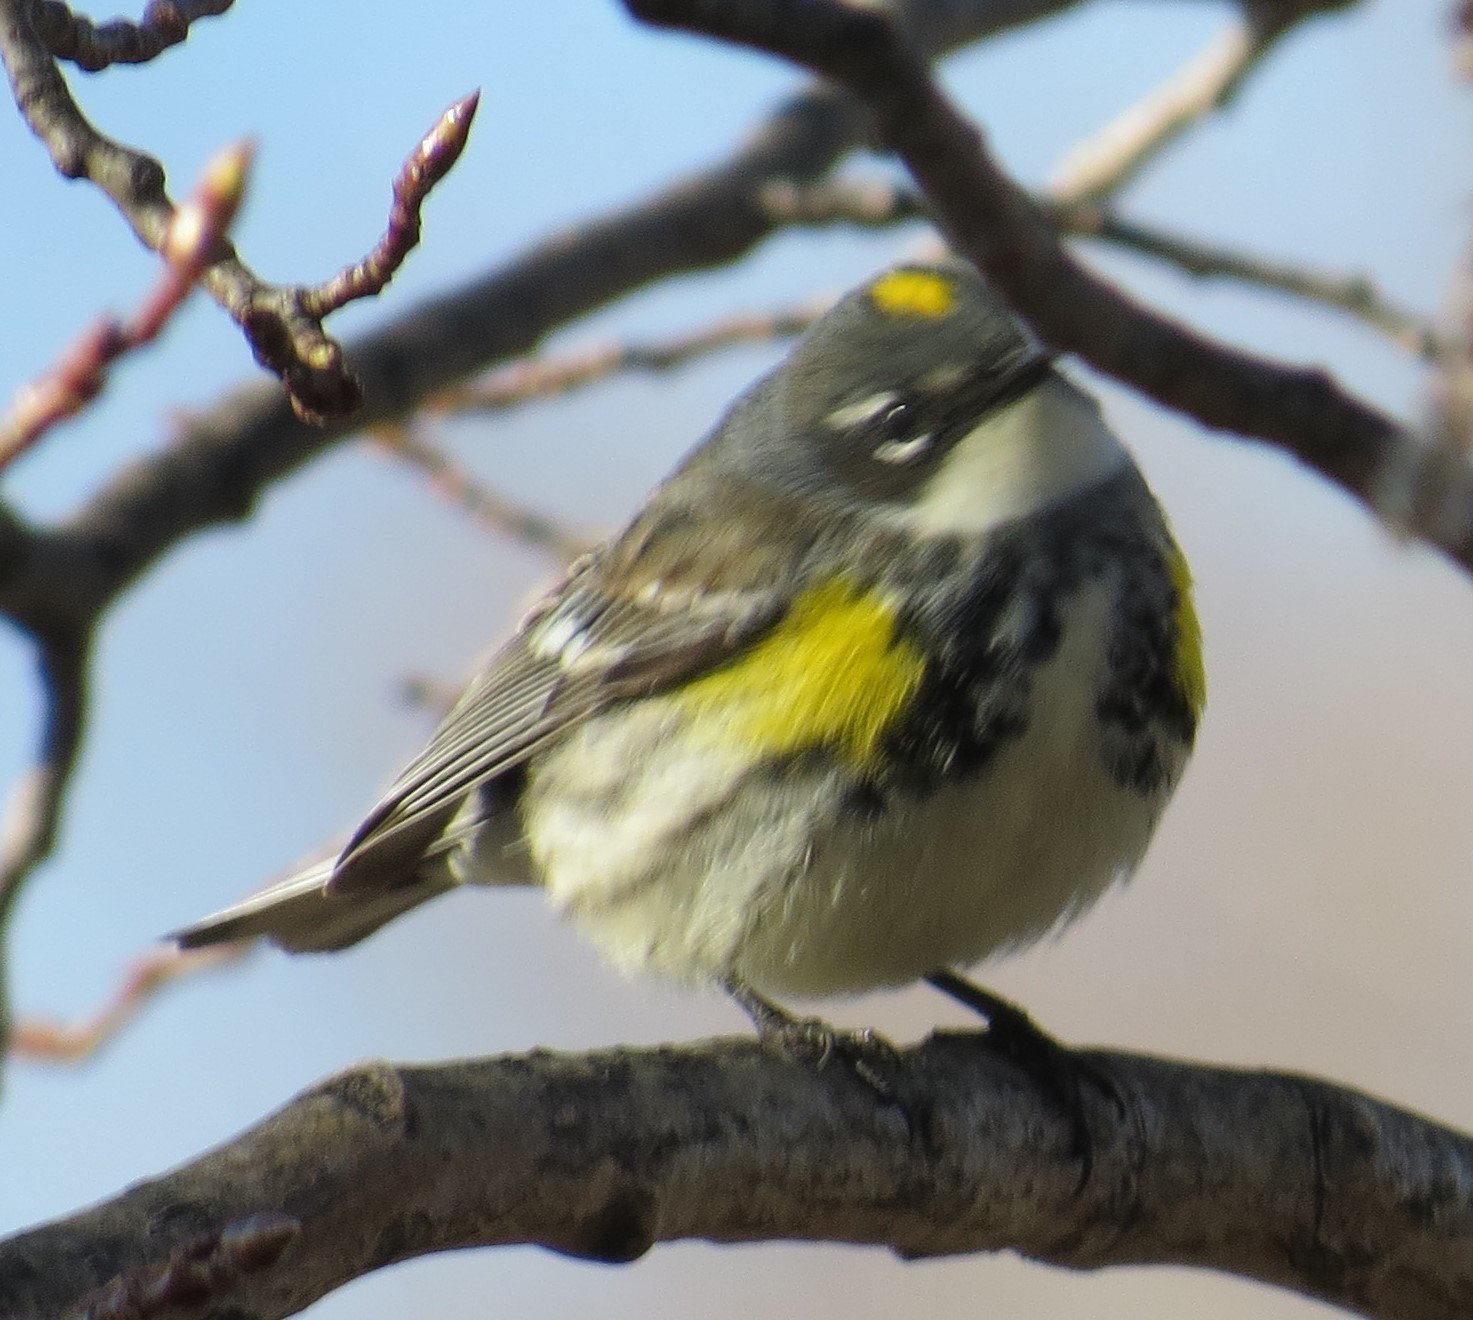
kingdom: Animalia
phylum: Chordata
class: Aves
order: Passeriformes
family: Parulidae
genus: Setophaga
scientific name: Setophaga coronata
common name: Myrtle warbler
